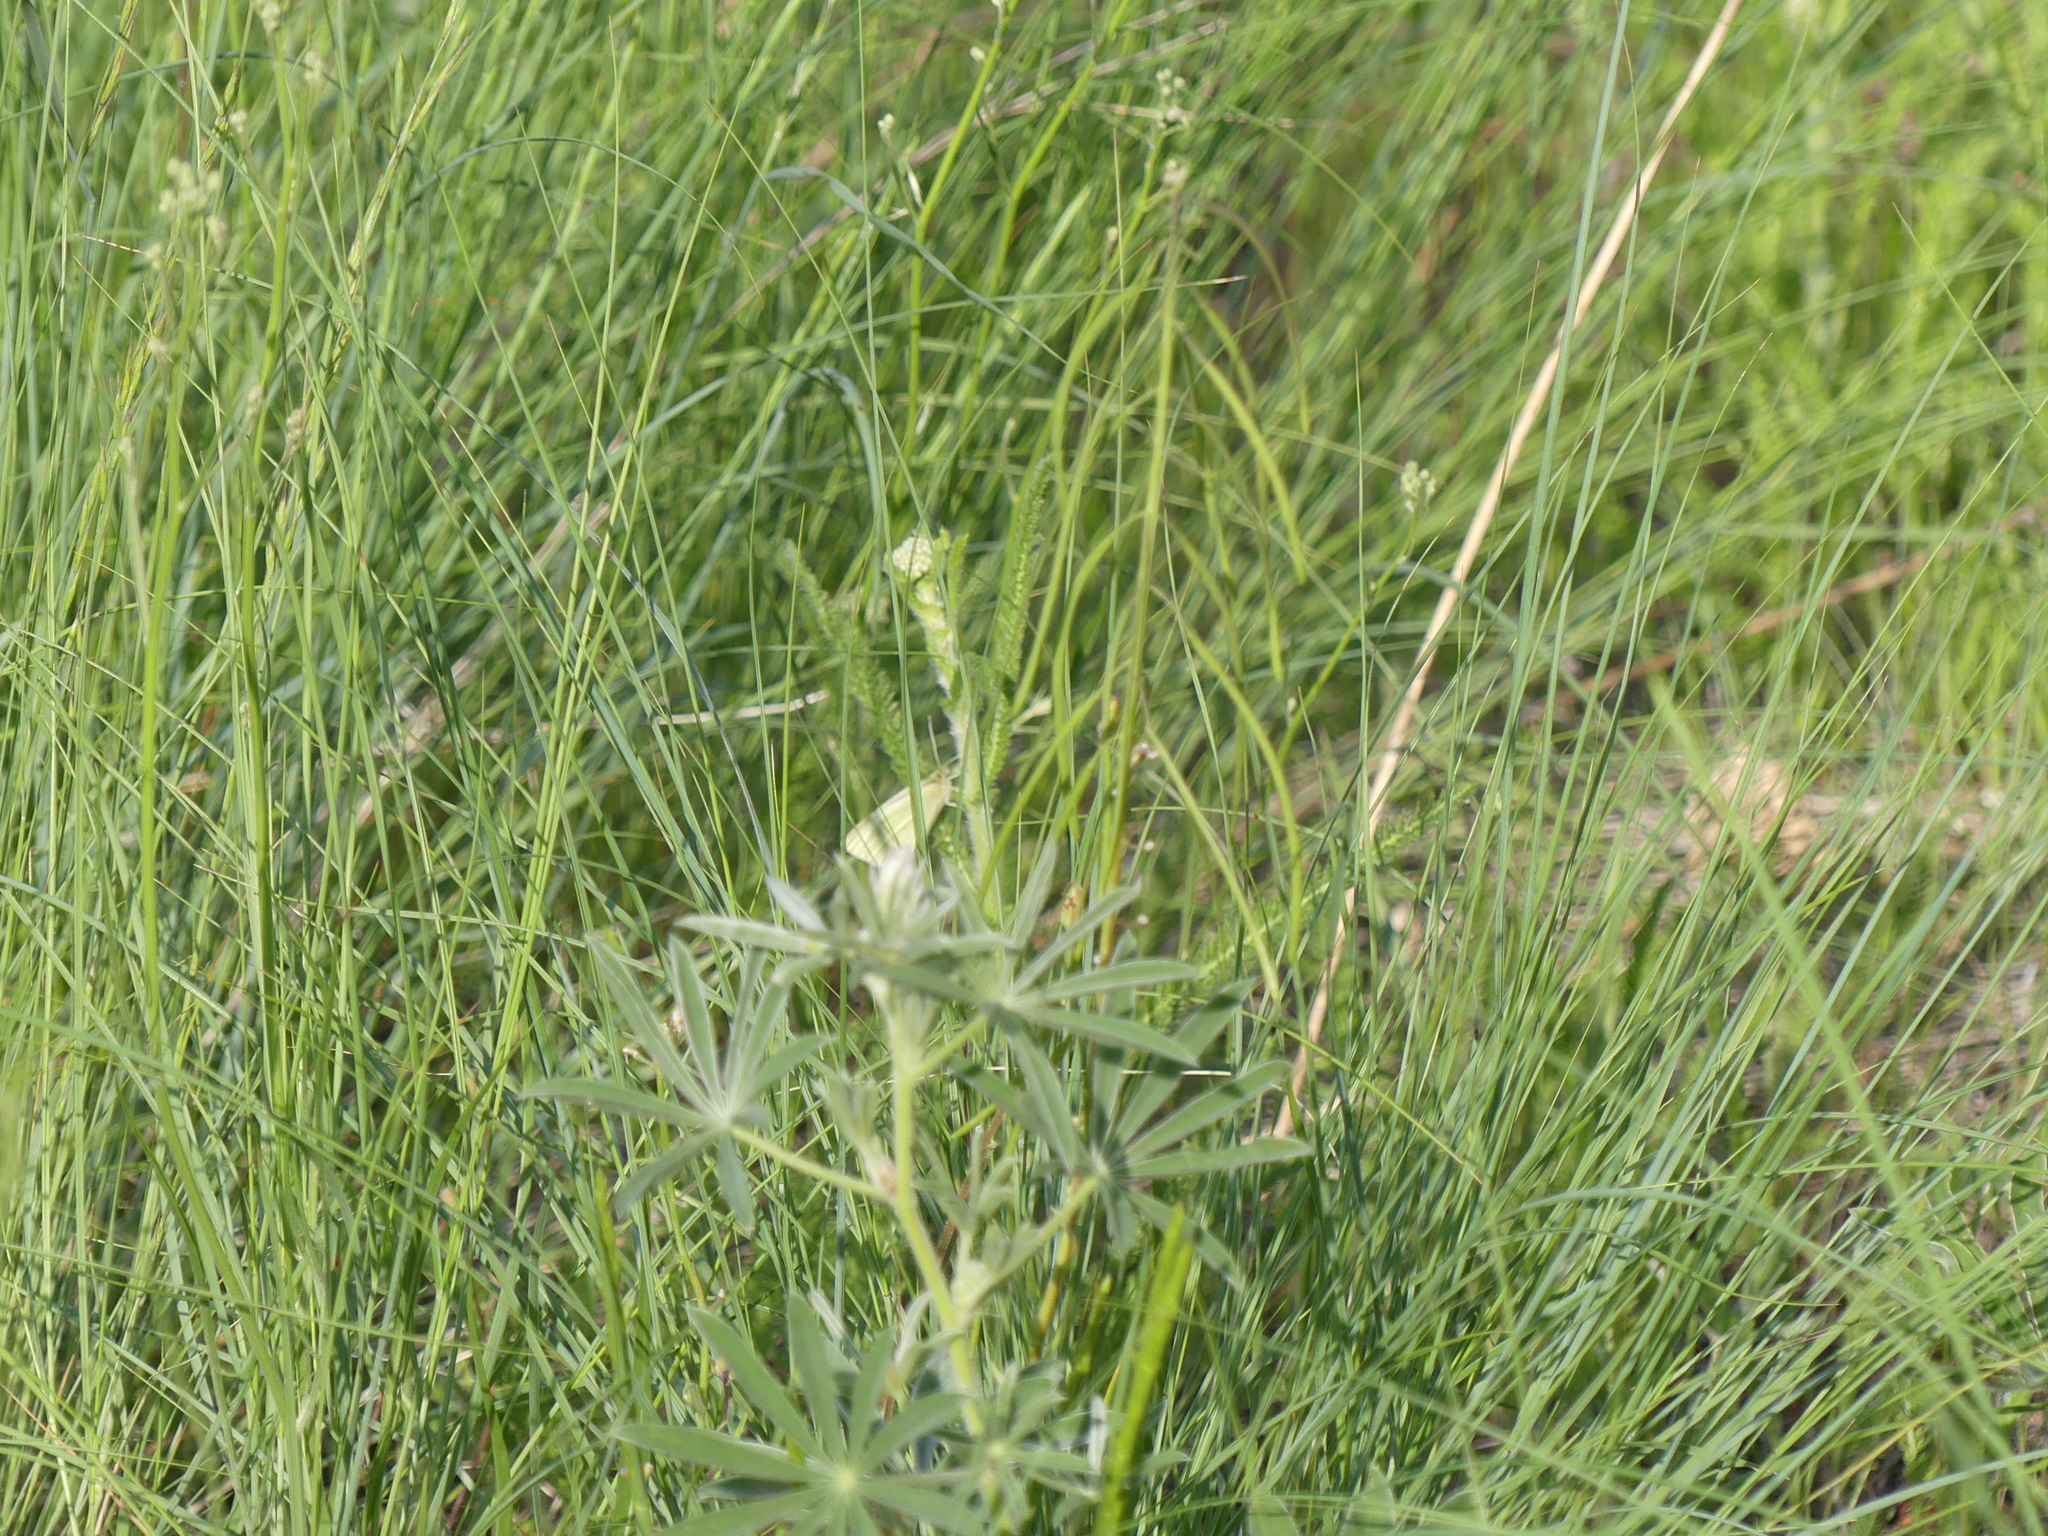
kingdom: Animalia
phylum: Arthropoda
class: Insecta
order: Lepidoptera
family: Pieridae
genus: Pieris
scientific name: Pieris rapae
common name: Small white
